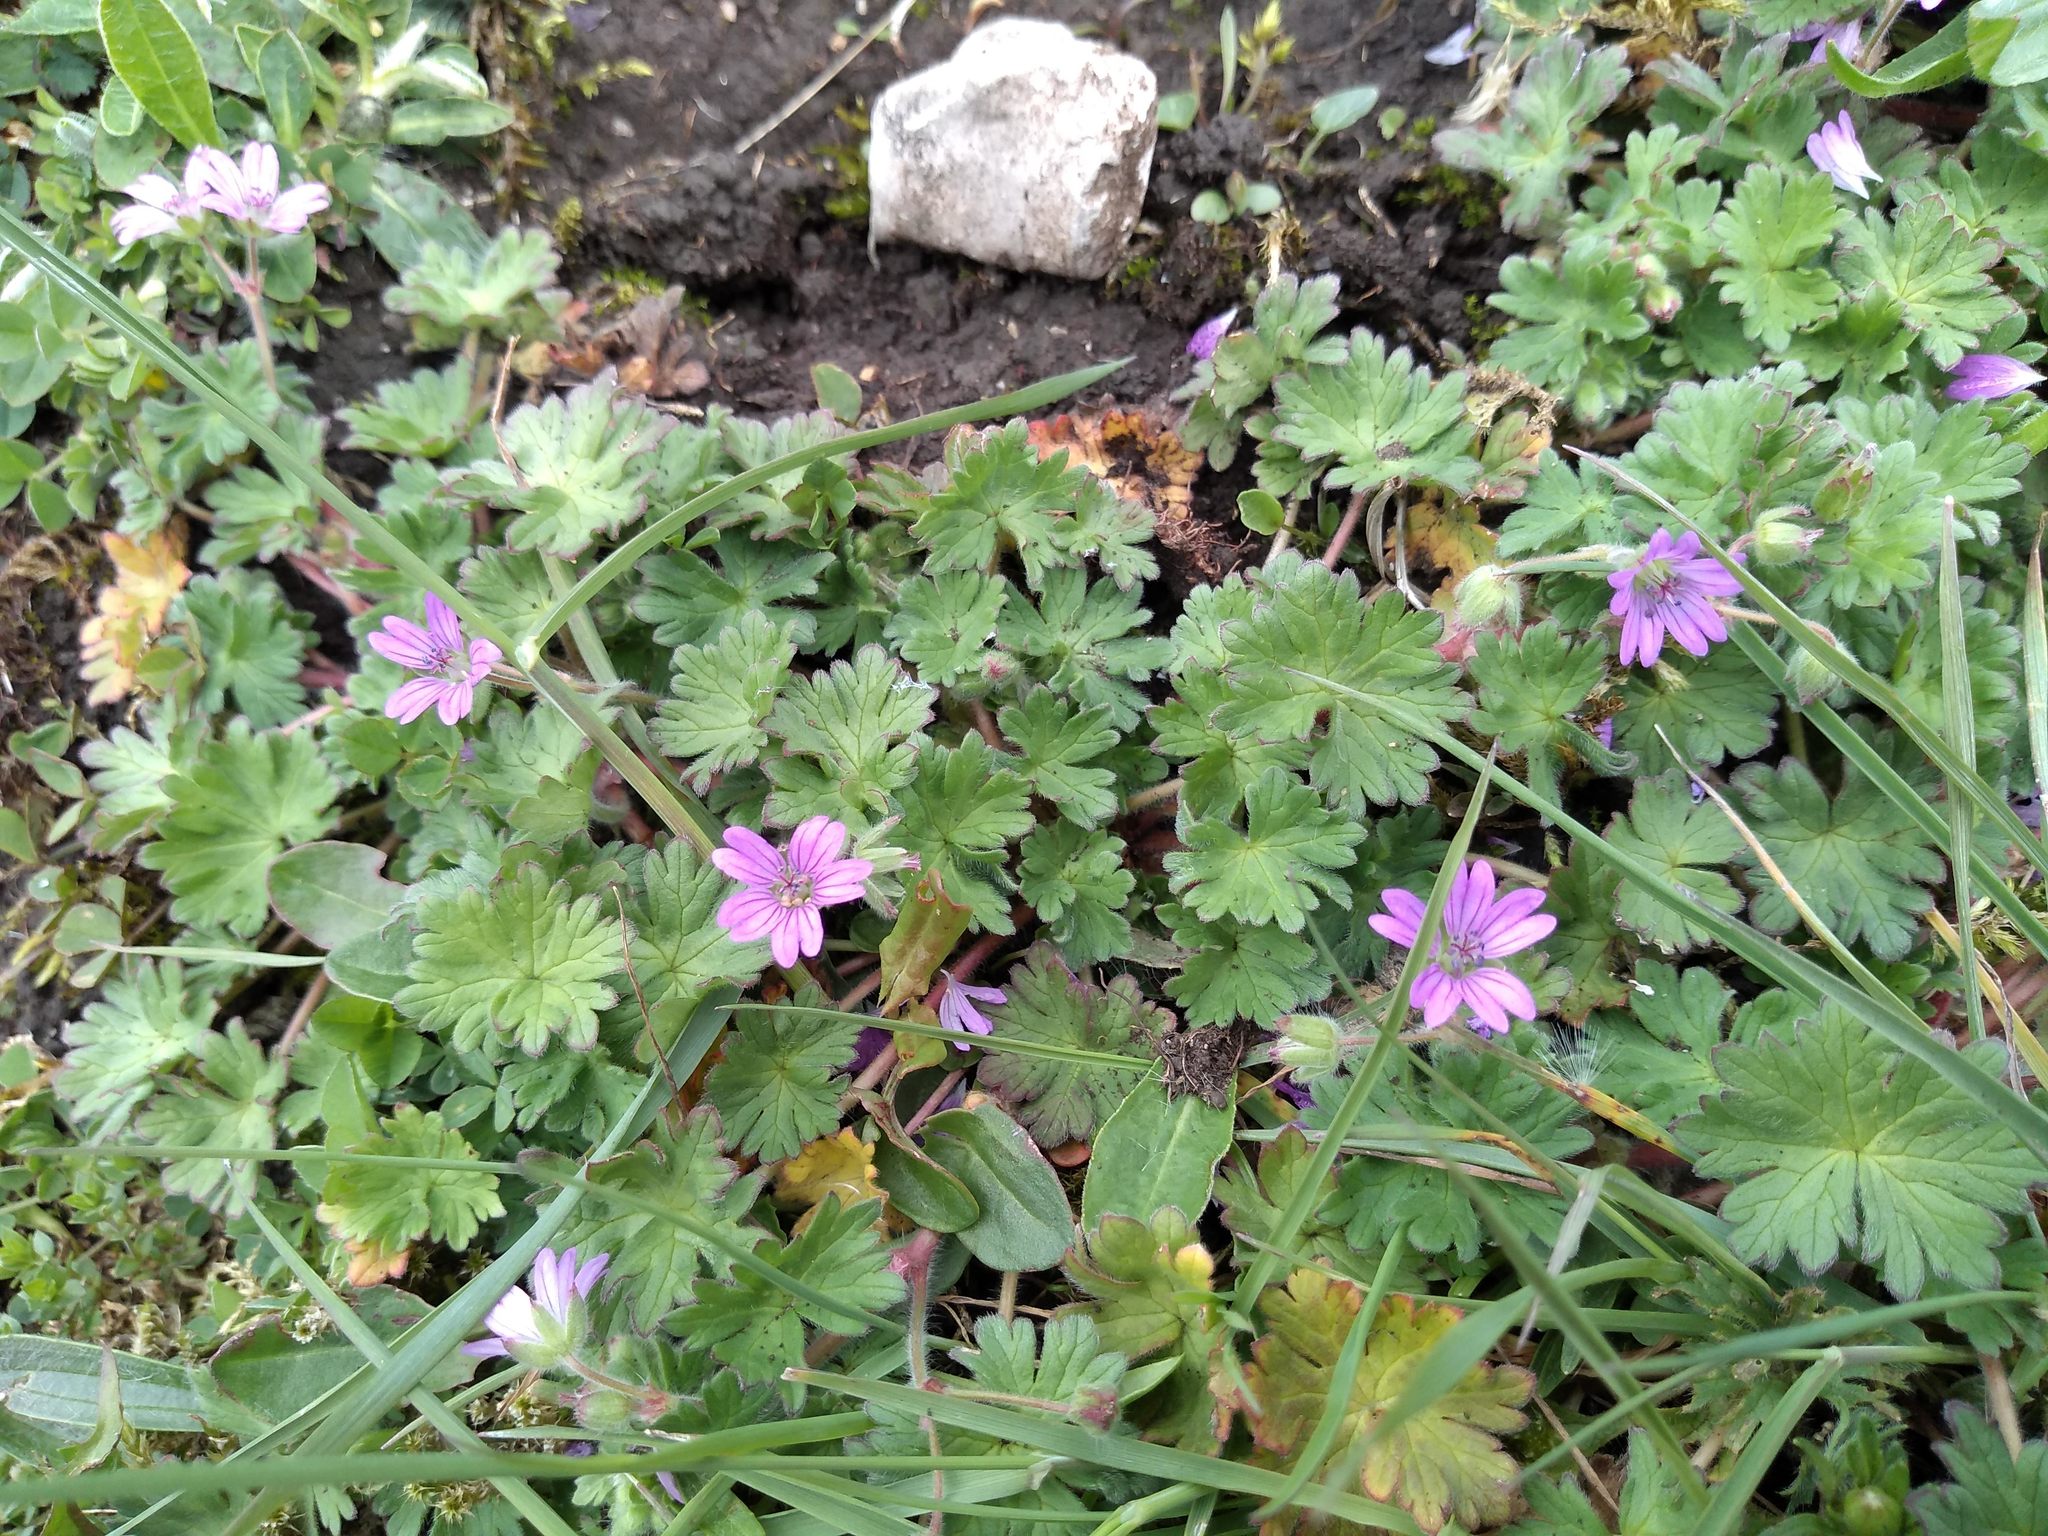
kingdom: Plantae
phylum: Tracheophyta
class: Magnoliopsida
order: Geraniales
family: Geraniaceae
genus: Geranium
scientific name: Geranium molle
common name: Dove's-foot crane's-bill
